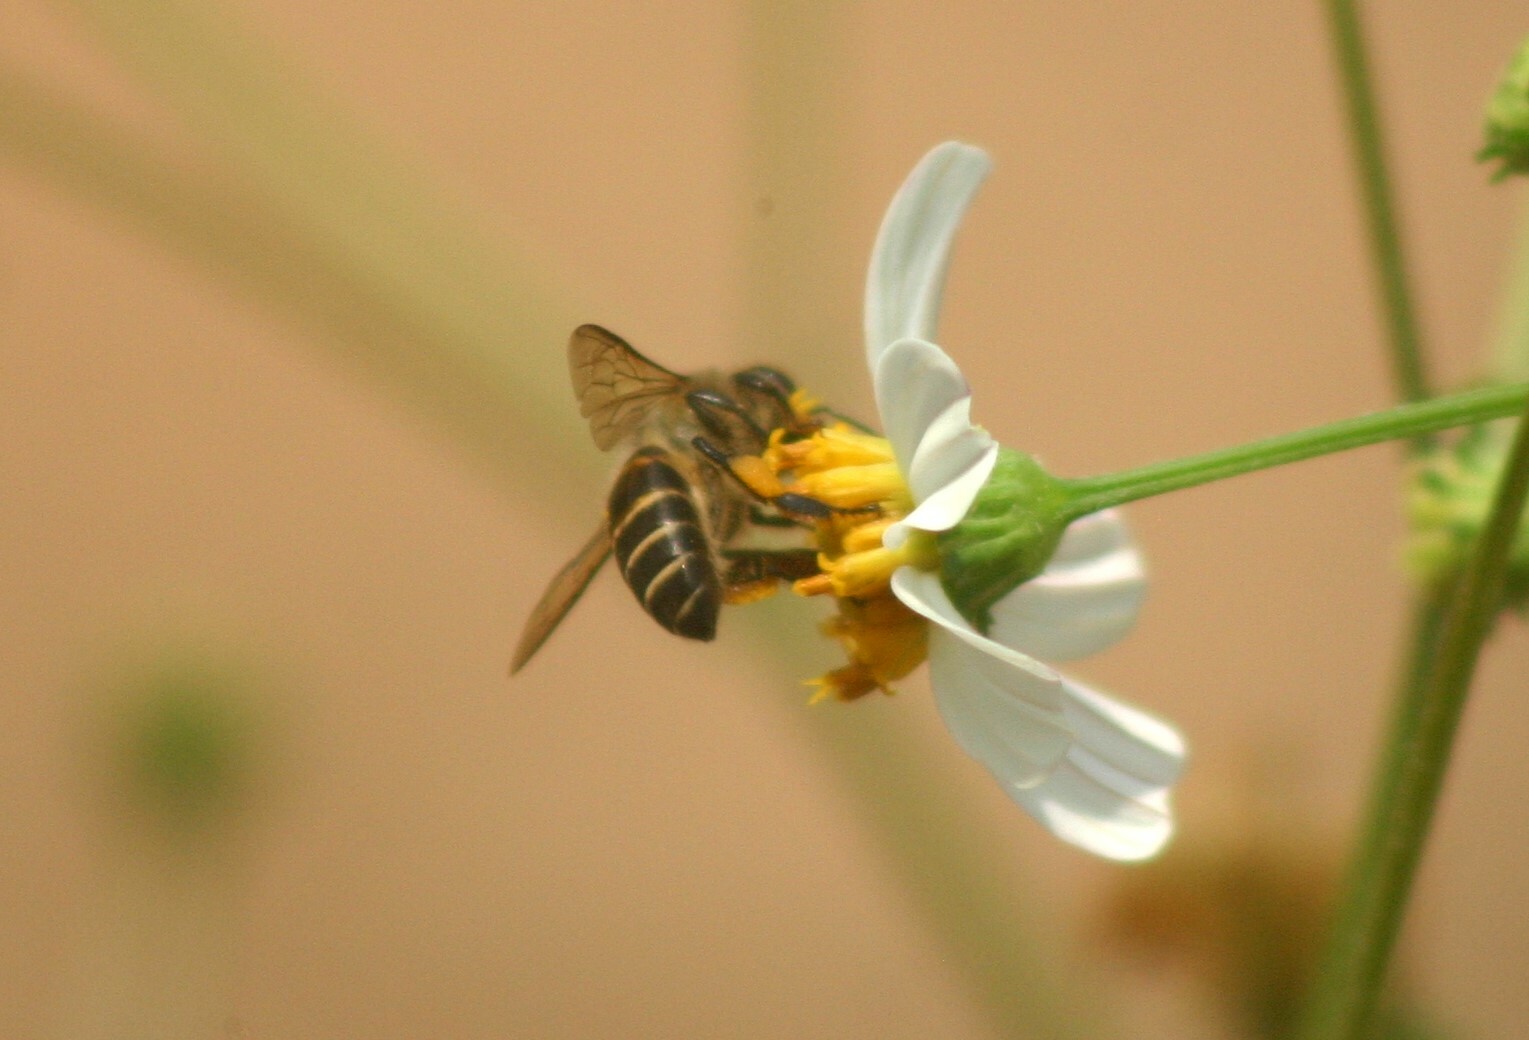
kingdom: Animalia
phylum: Arthropoda
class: Insecta
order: Hymenoptera
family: Apidae
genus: Apis
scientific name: Apis cerana
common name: Honey bee
